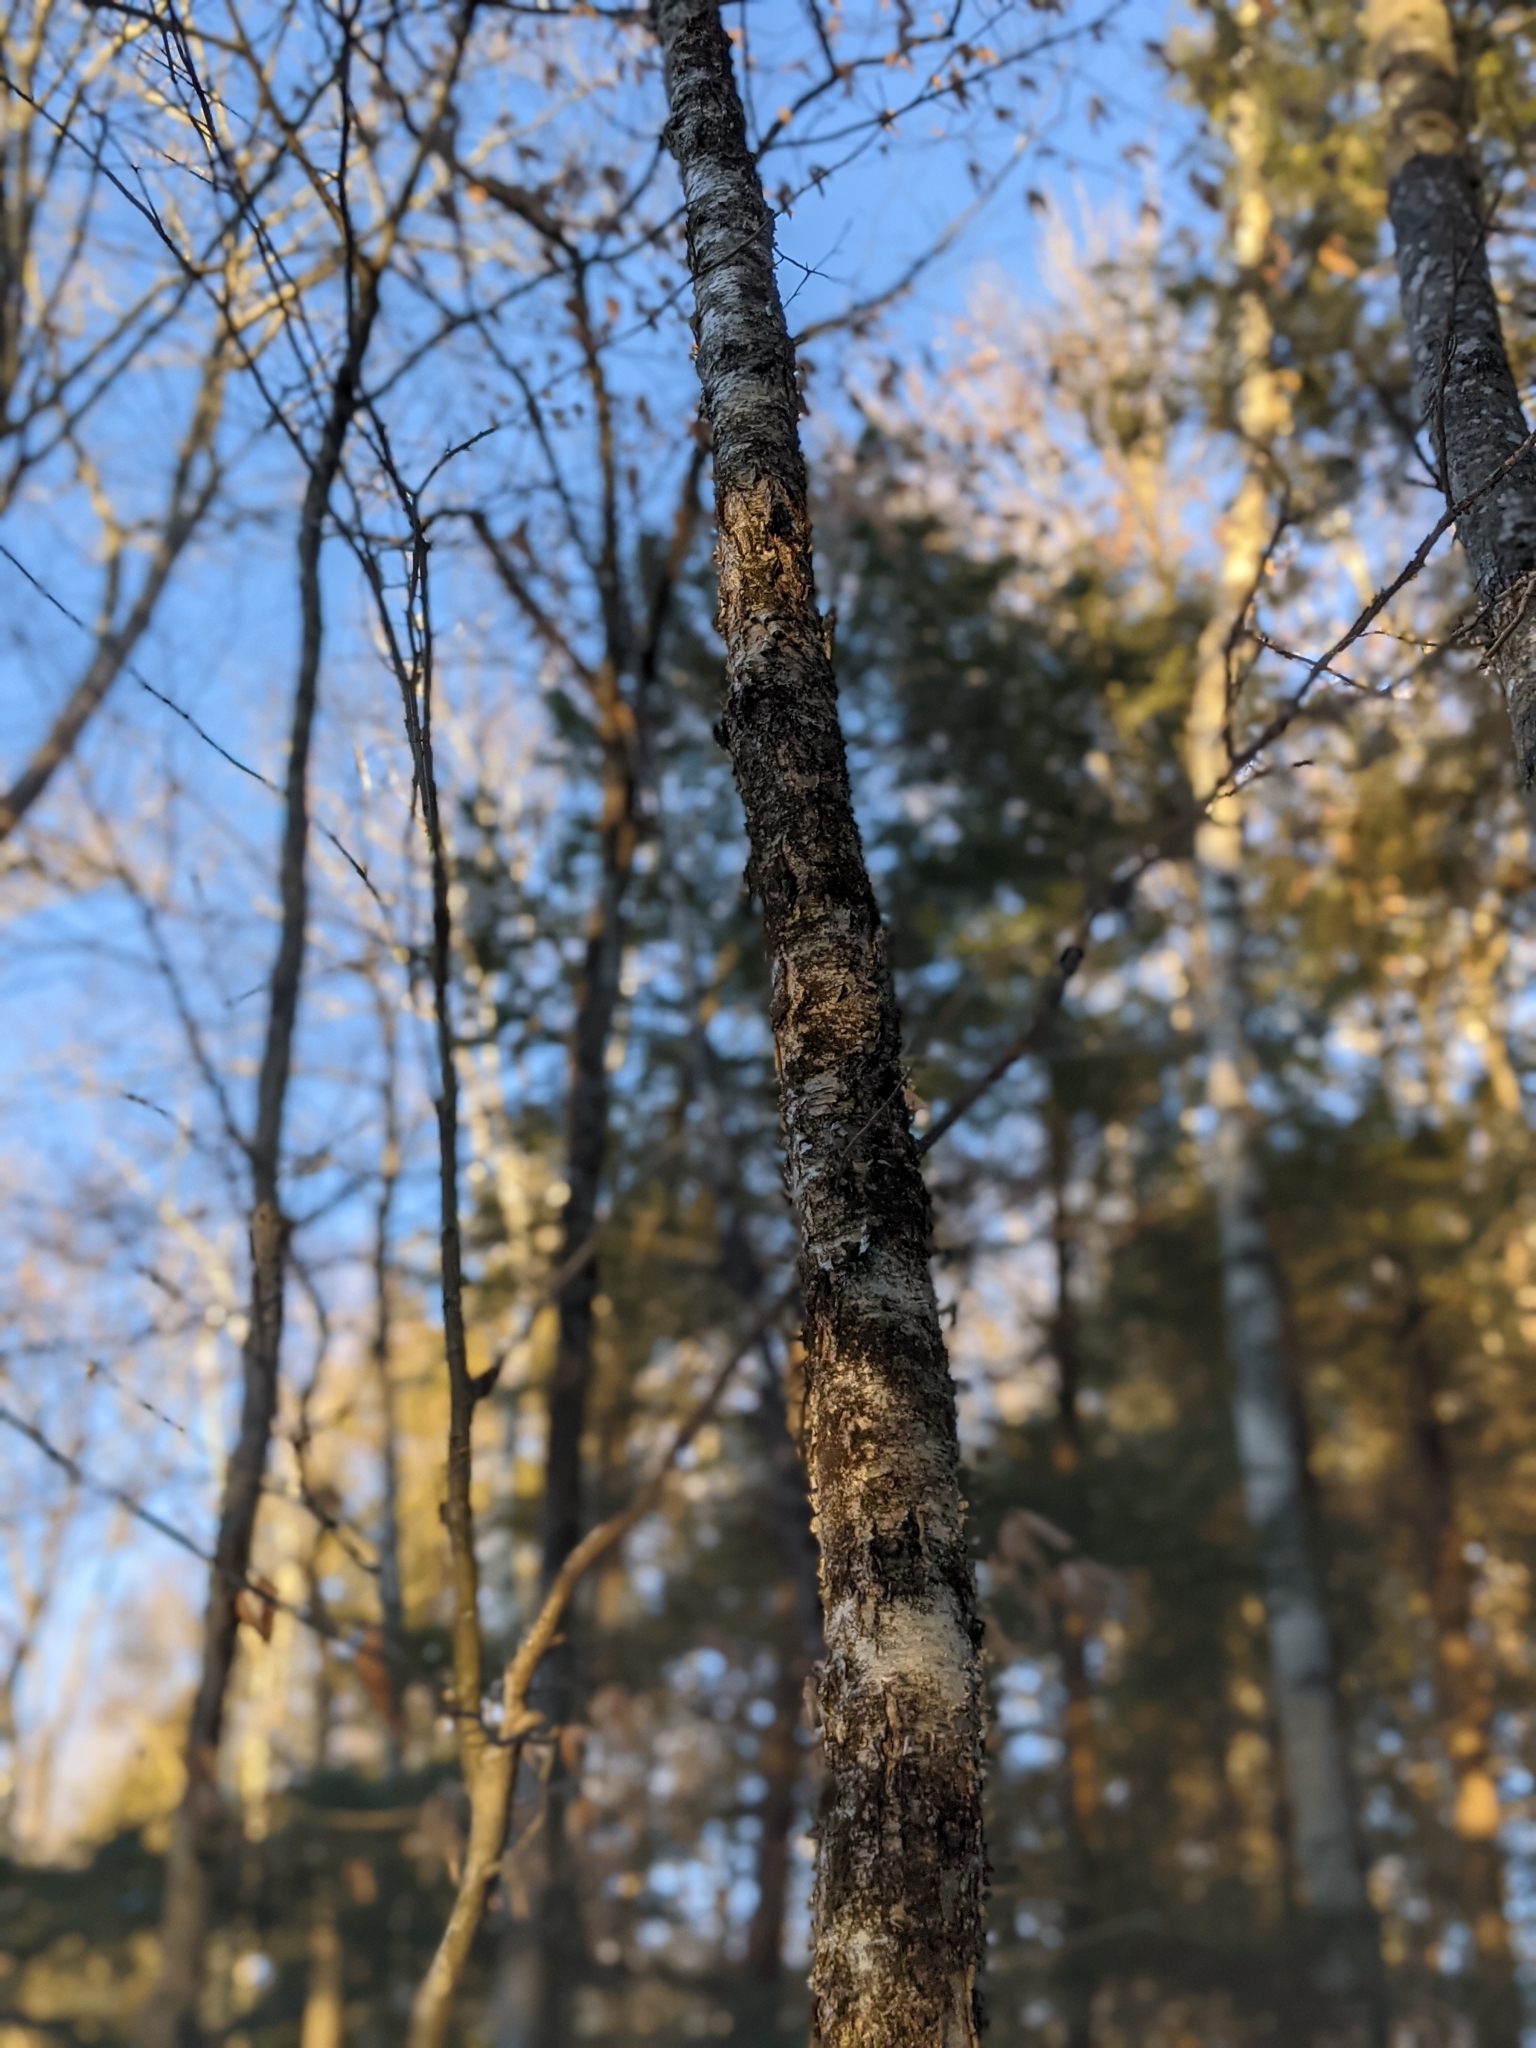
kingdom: Plantae
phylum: Tracheophyta
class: Magnoliopsida
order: Fagales
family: Betulaceae
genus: Betula
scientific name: Betula alleghaniensis
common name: Yellow birch
